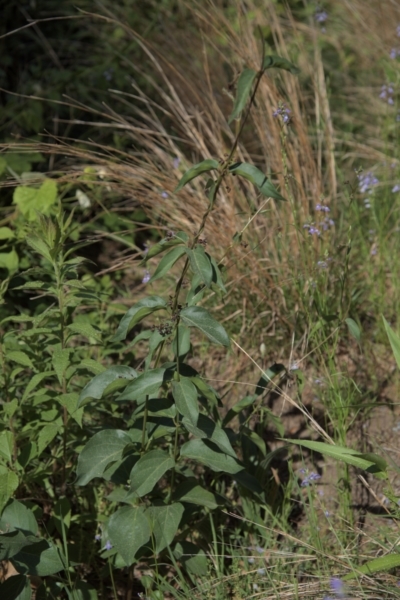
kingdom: Plantae
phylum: Tracheophyta
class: Magnoliopsida
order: Gentianales
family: Apocynaceae
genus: Vincetoxicum
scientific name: Vincetoxicum nigrum
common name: Black swallow-wort
